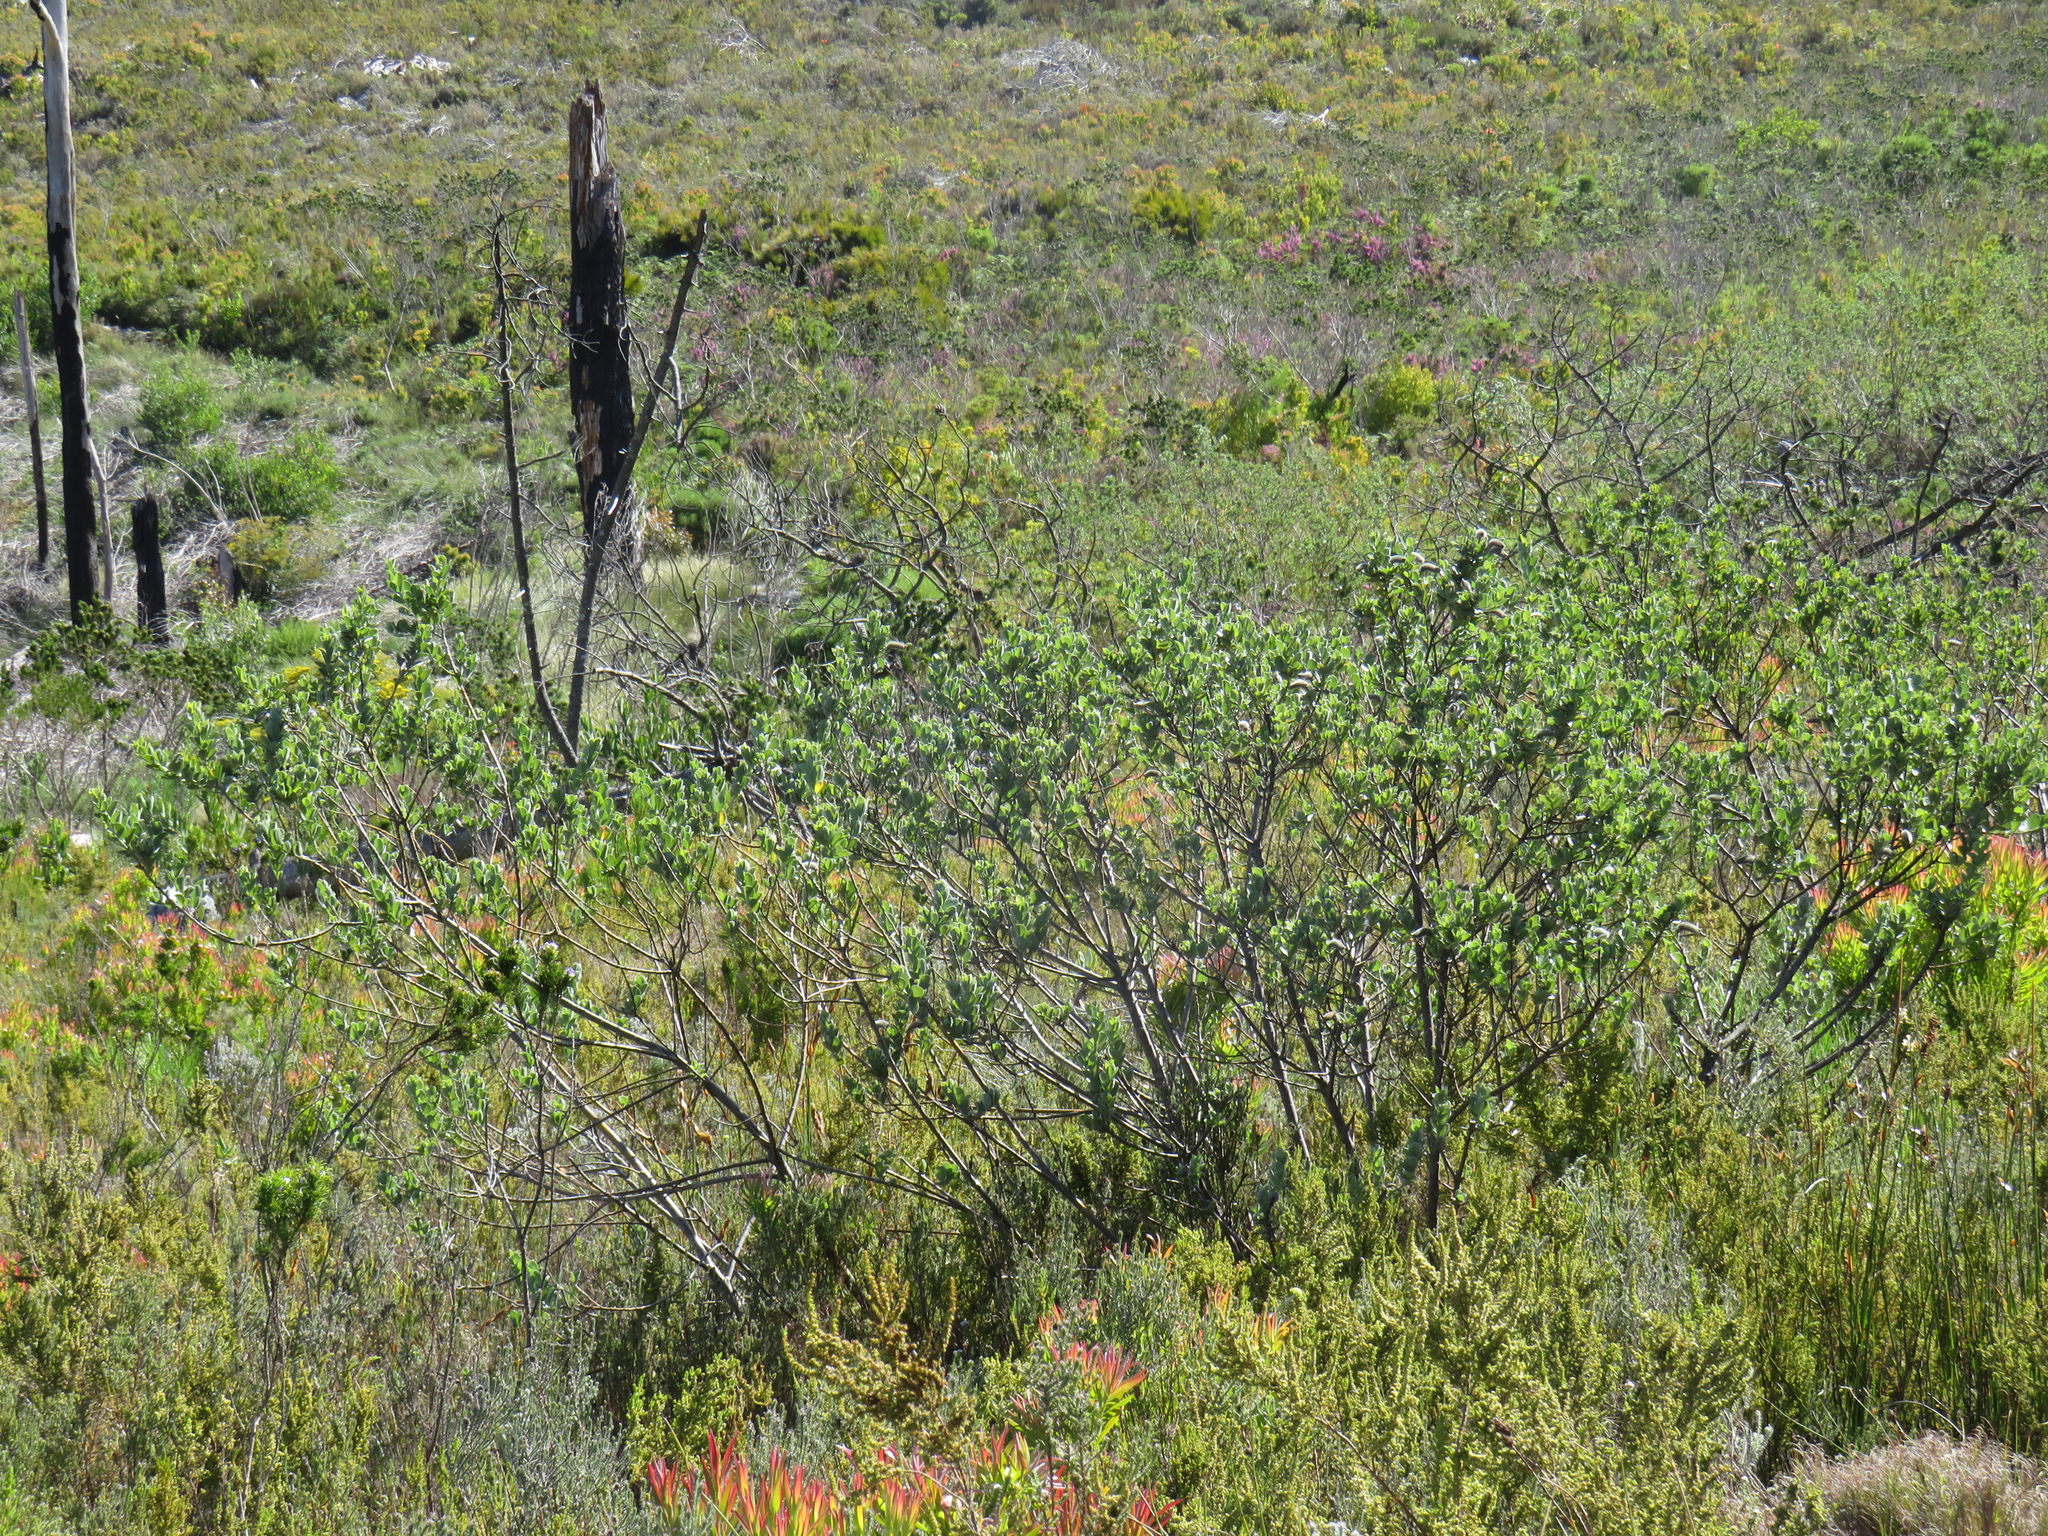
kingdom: Plantae
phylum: Tracheophyta
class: Magnoliopsida
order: Fabales
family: Fabaceae
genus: Podalyria
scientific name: Podalyria calyptrata
